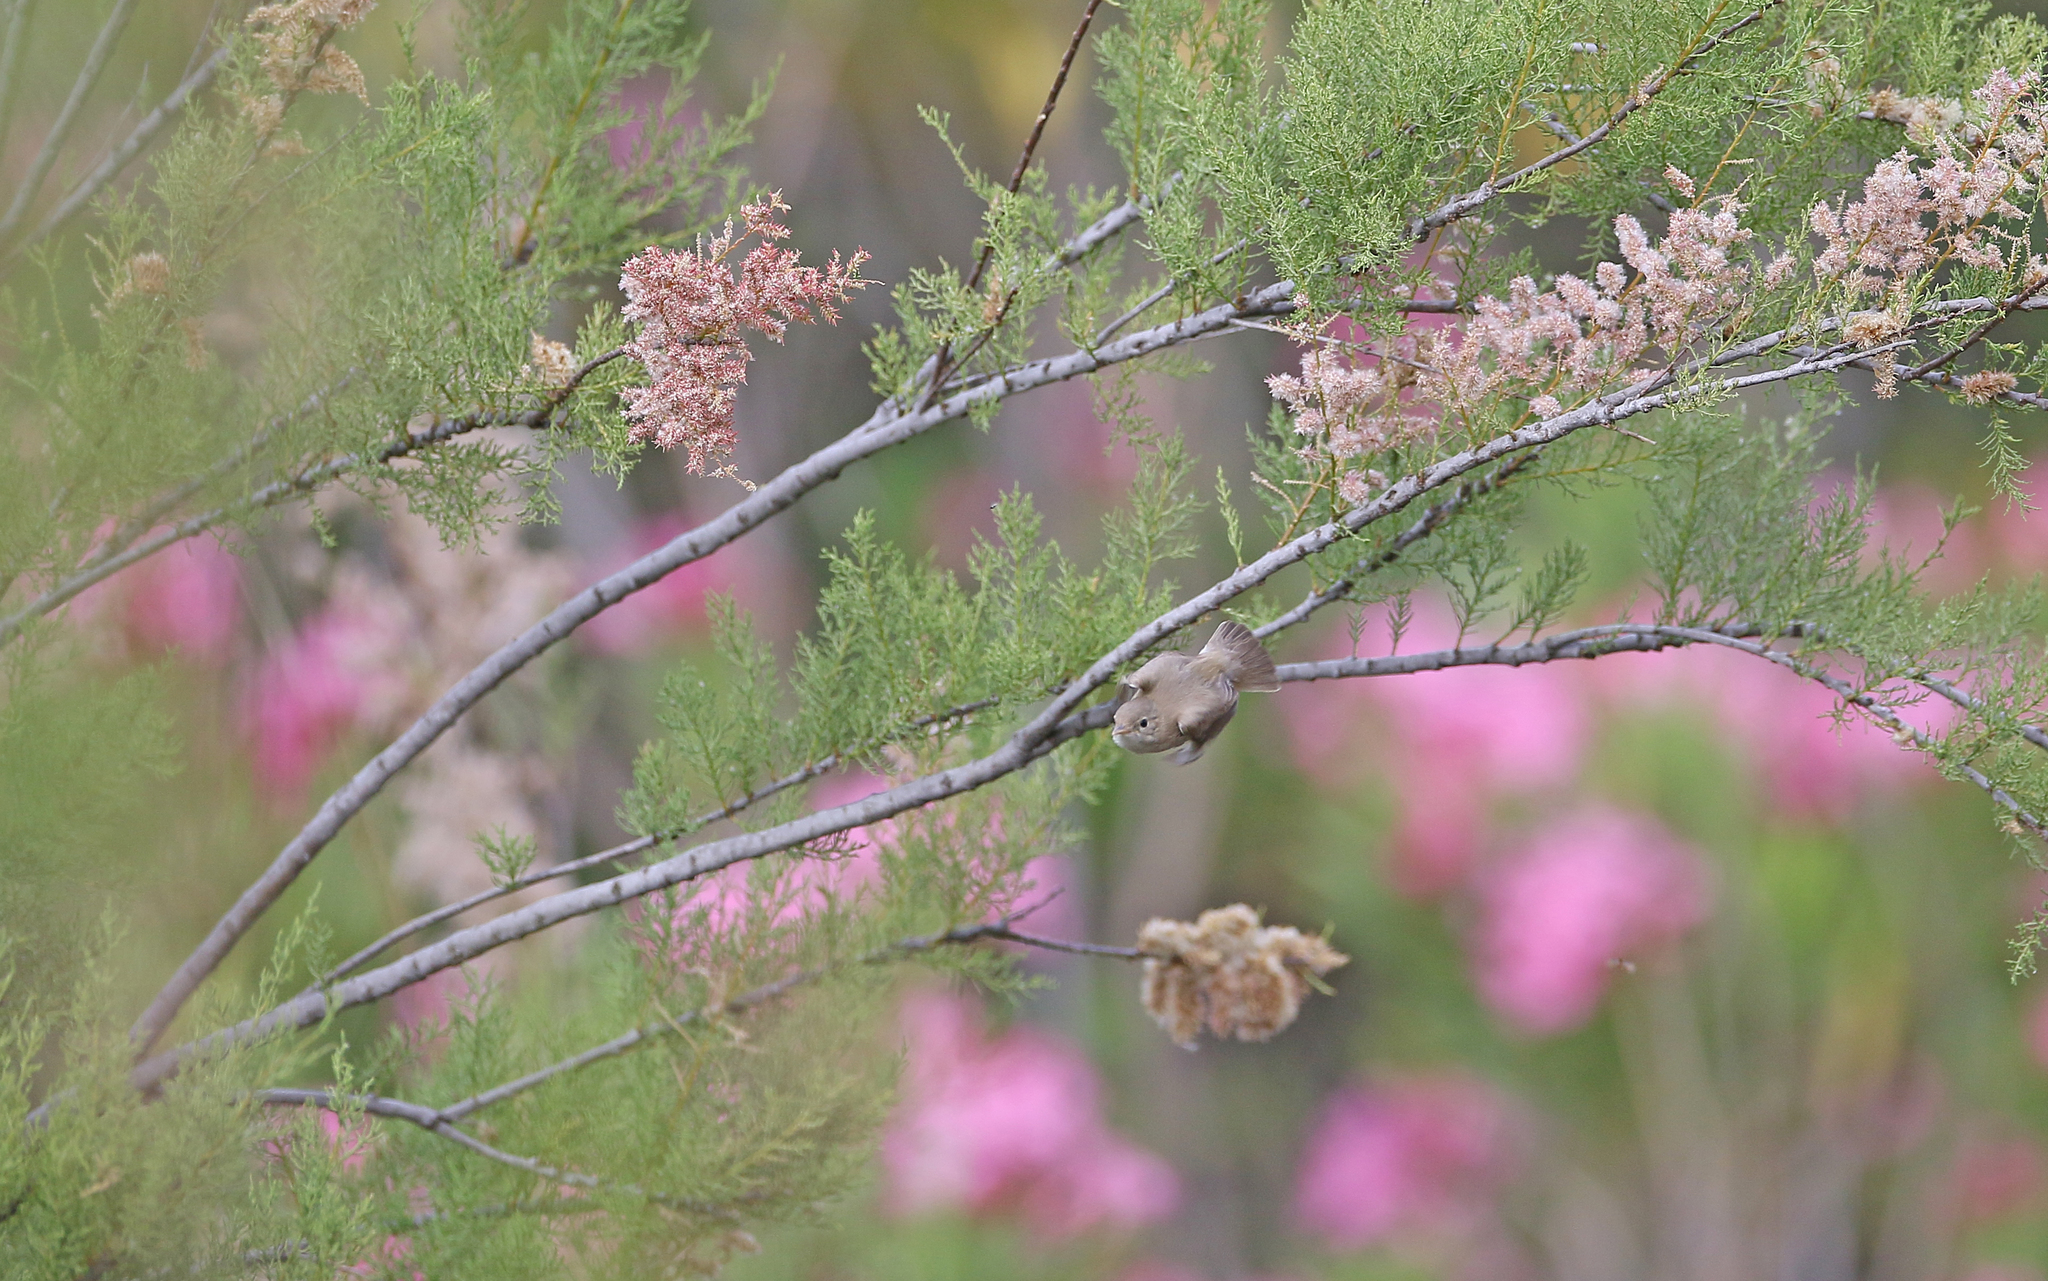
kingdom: Animalia
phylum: Chordata
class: Aves
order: Passeriformes
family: Acrocephalidae
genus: Iduna
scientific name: Iduna opaca
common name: Western olivaceous warbler
